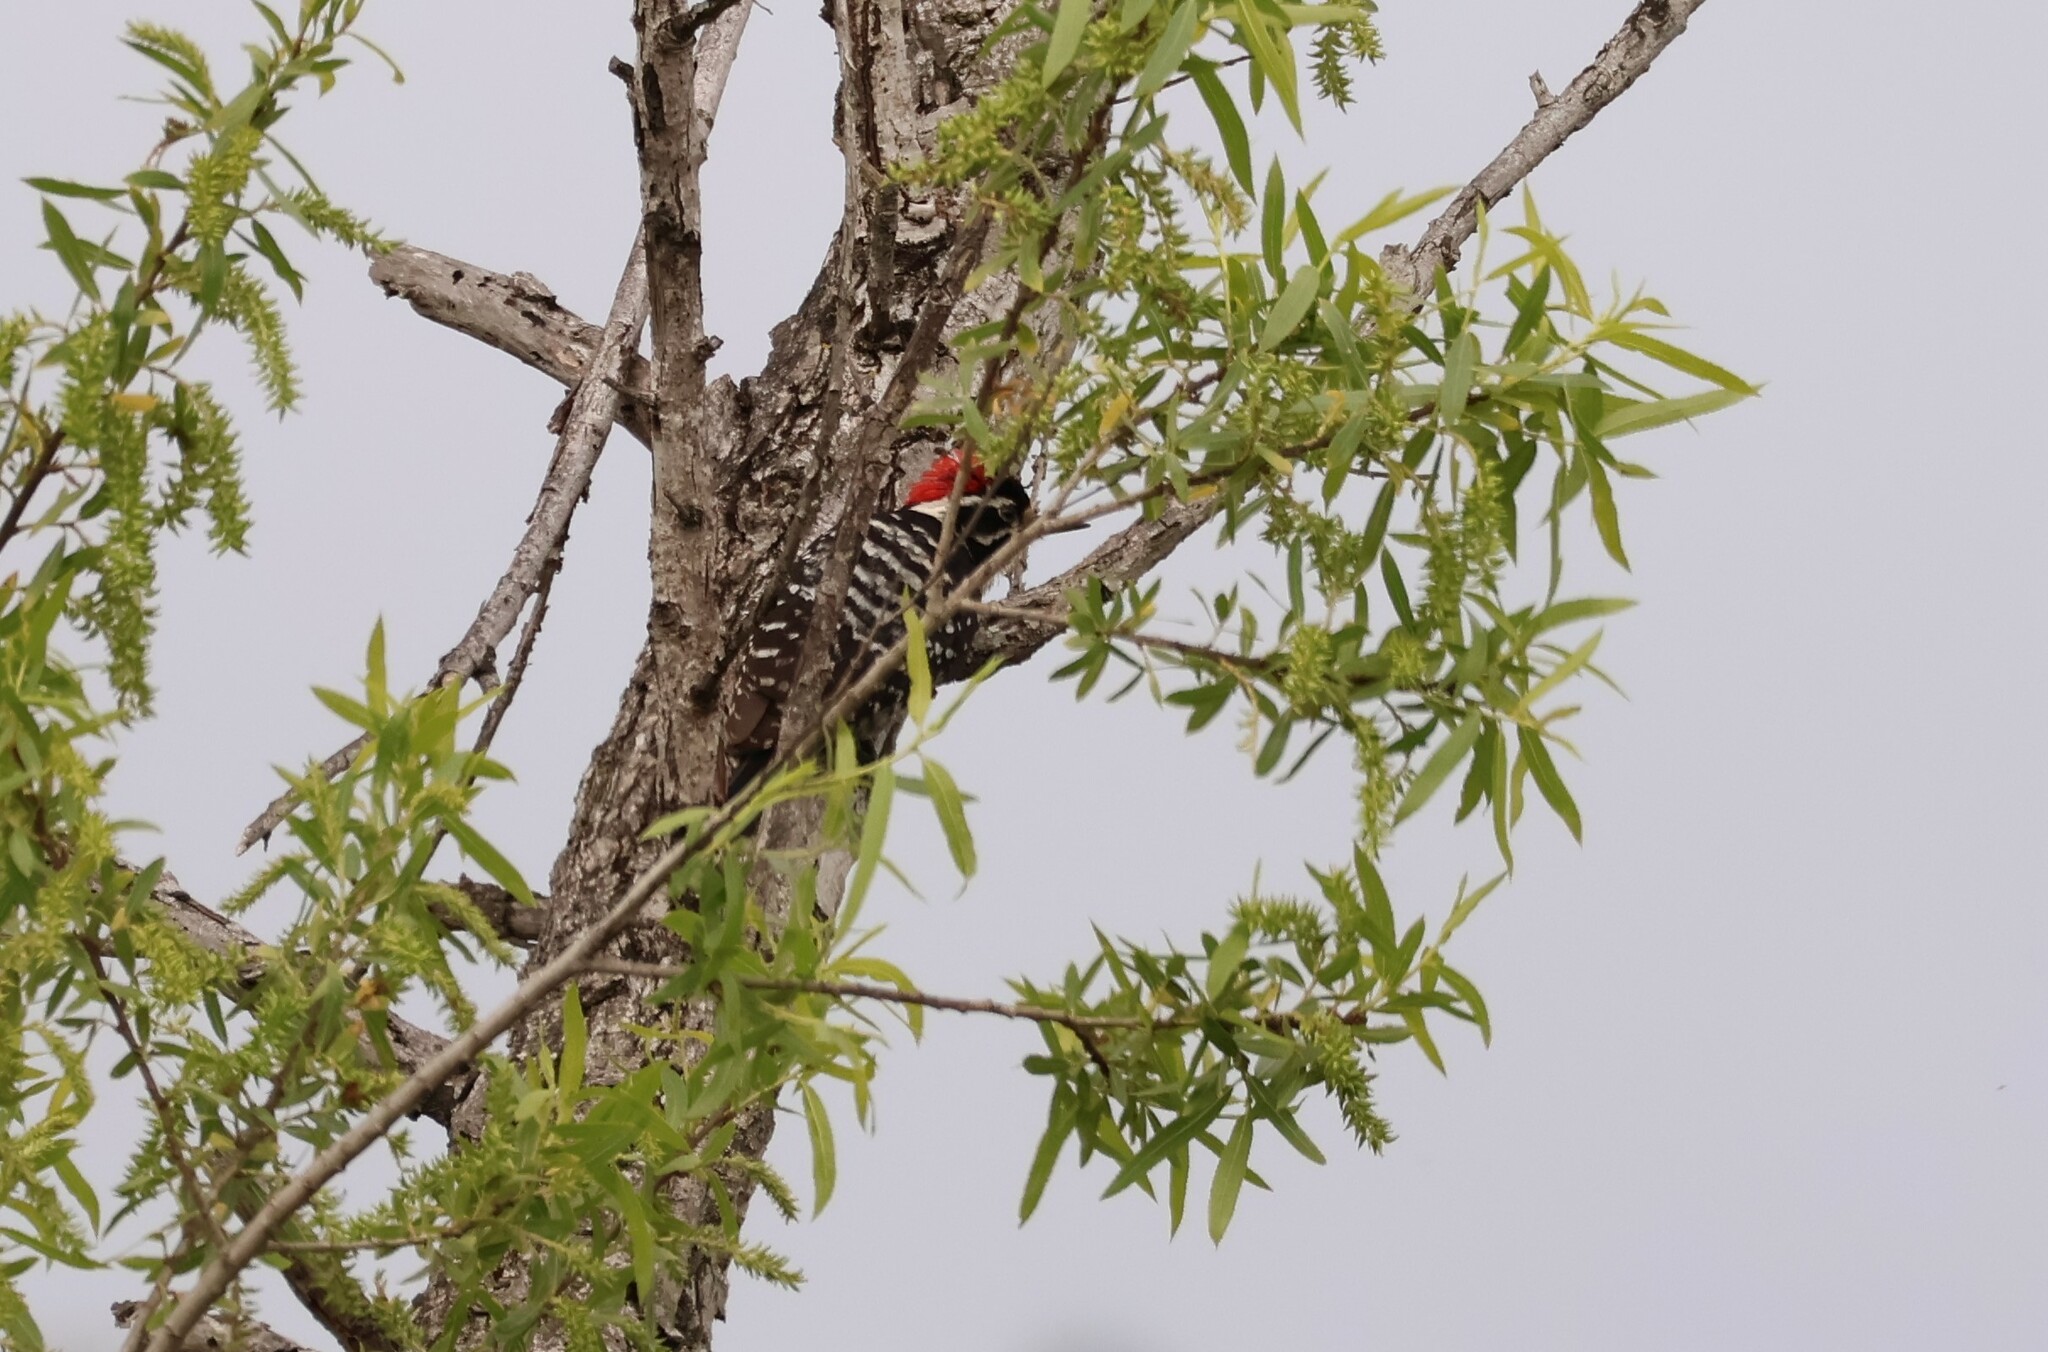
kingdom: Animalia
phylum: Chordata
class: Aves
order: Piciformes
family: Picidae
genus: Dryobates
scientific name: Dryobates nuttallii
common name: Nuttall's woodpecker
